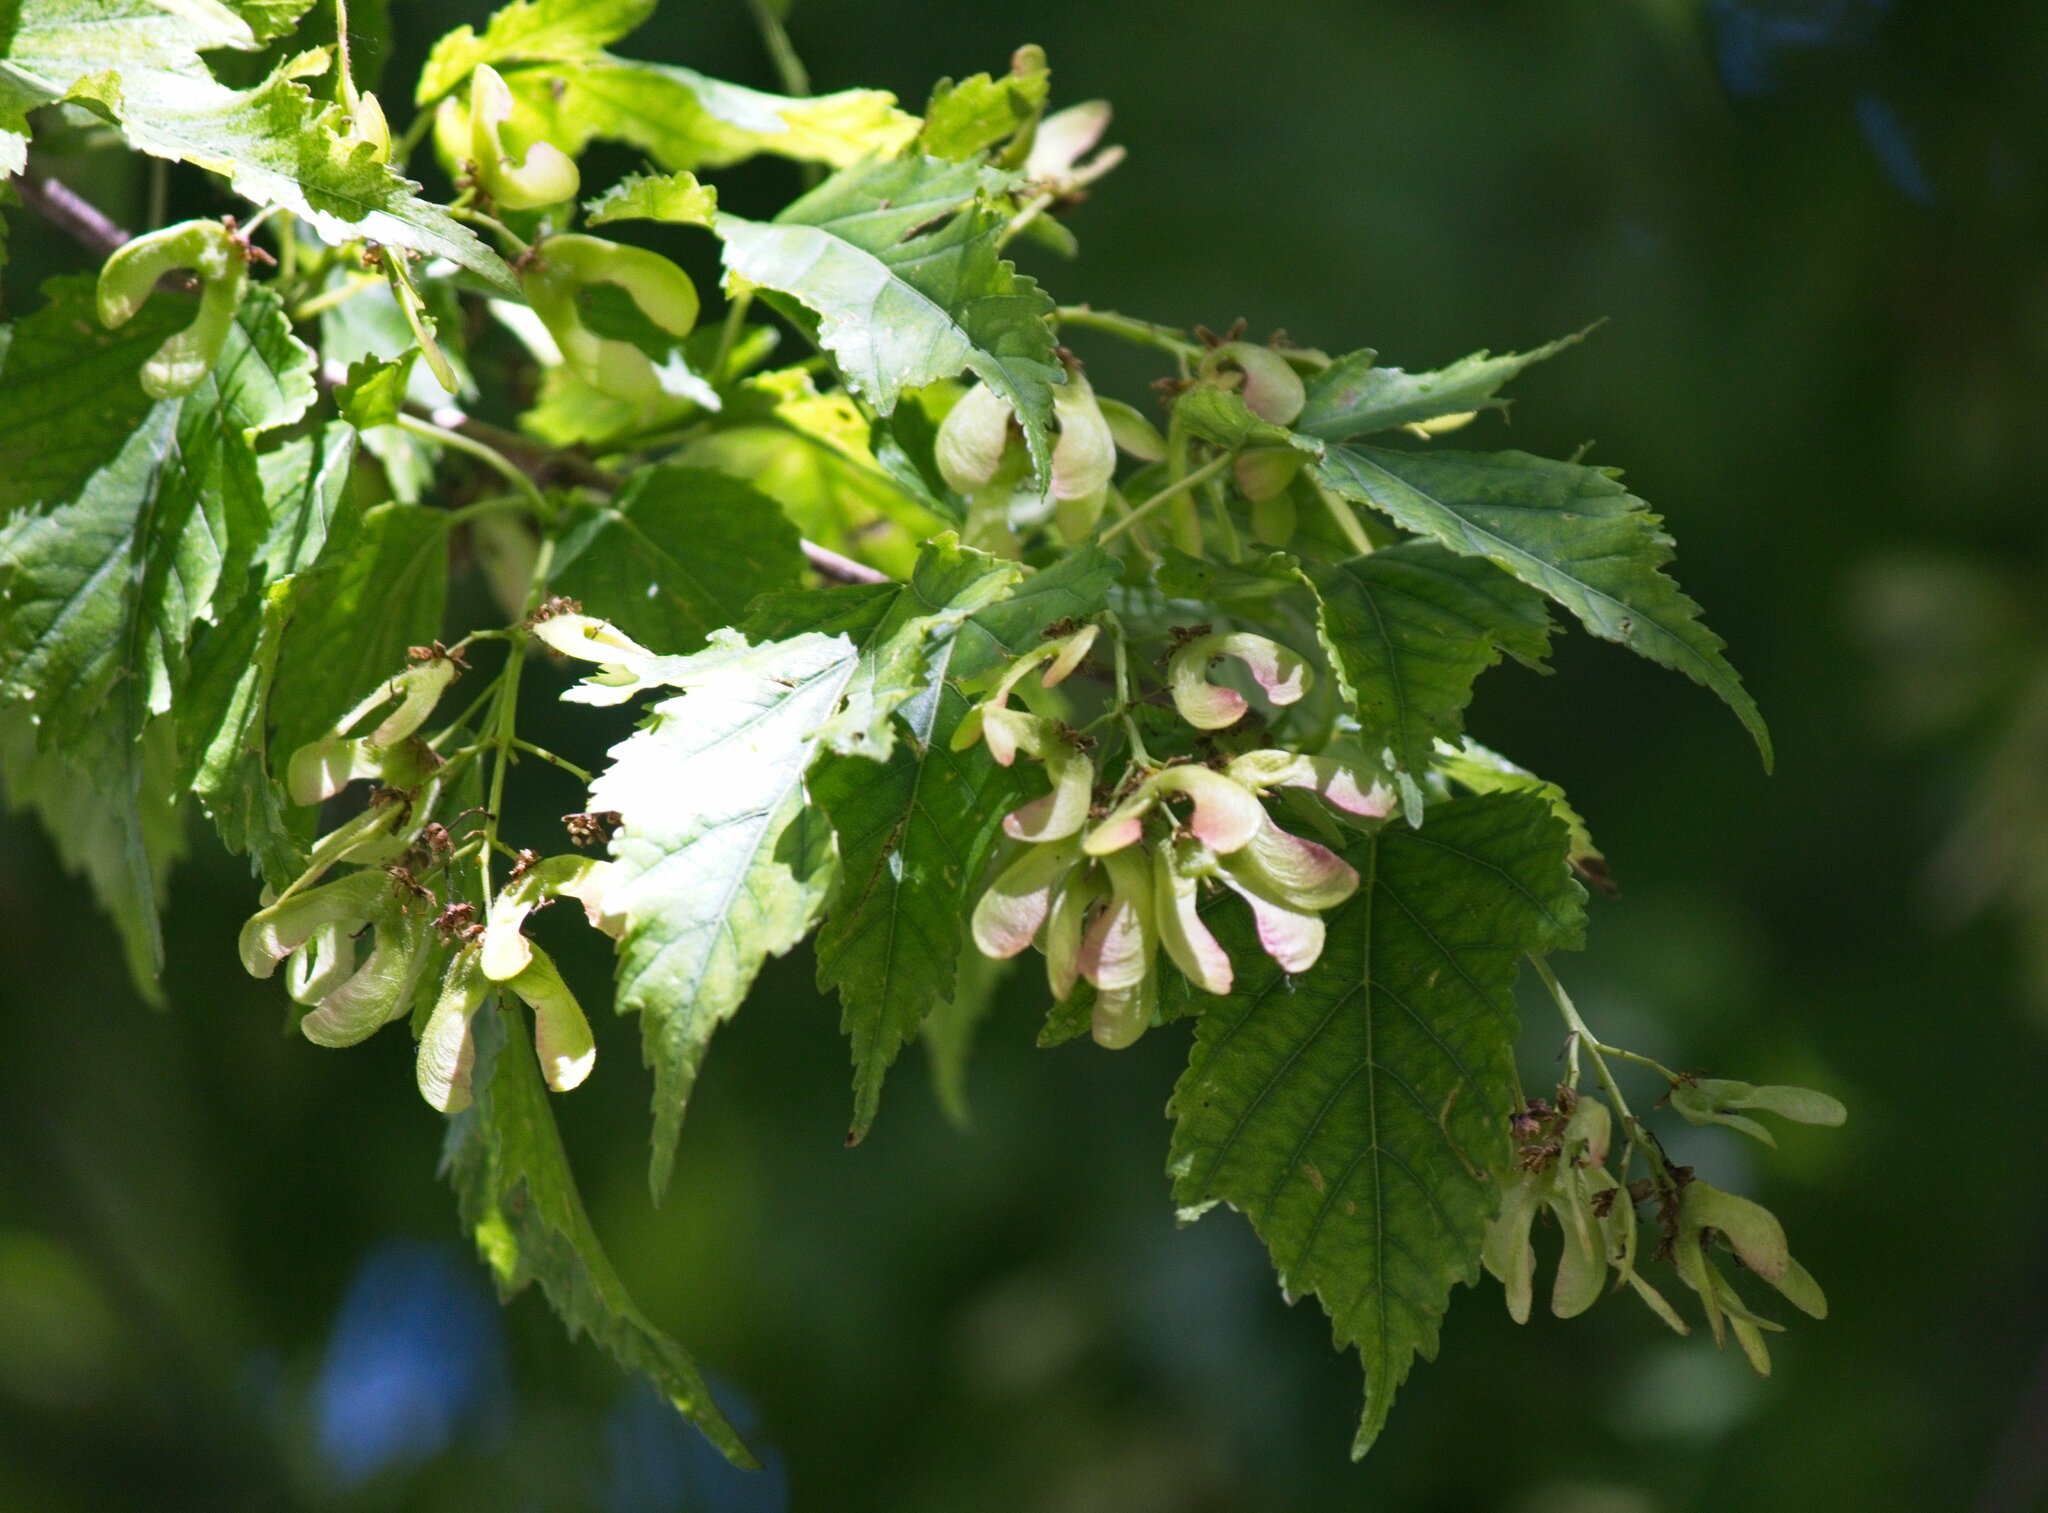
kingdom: Plantae
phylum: Tracheophyta
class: Magnoliopsida
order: Sapindales
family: Sapindaceae
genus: Acer
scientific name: Acer negundo
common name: Ashleaf maple
